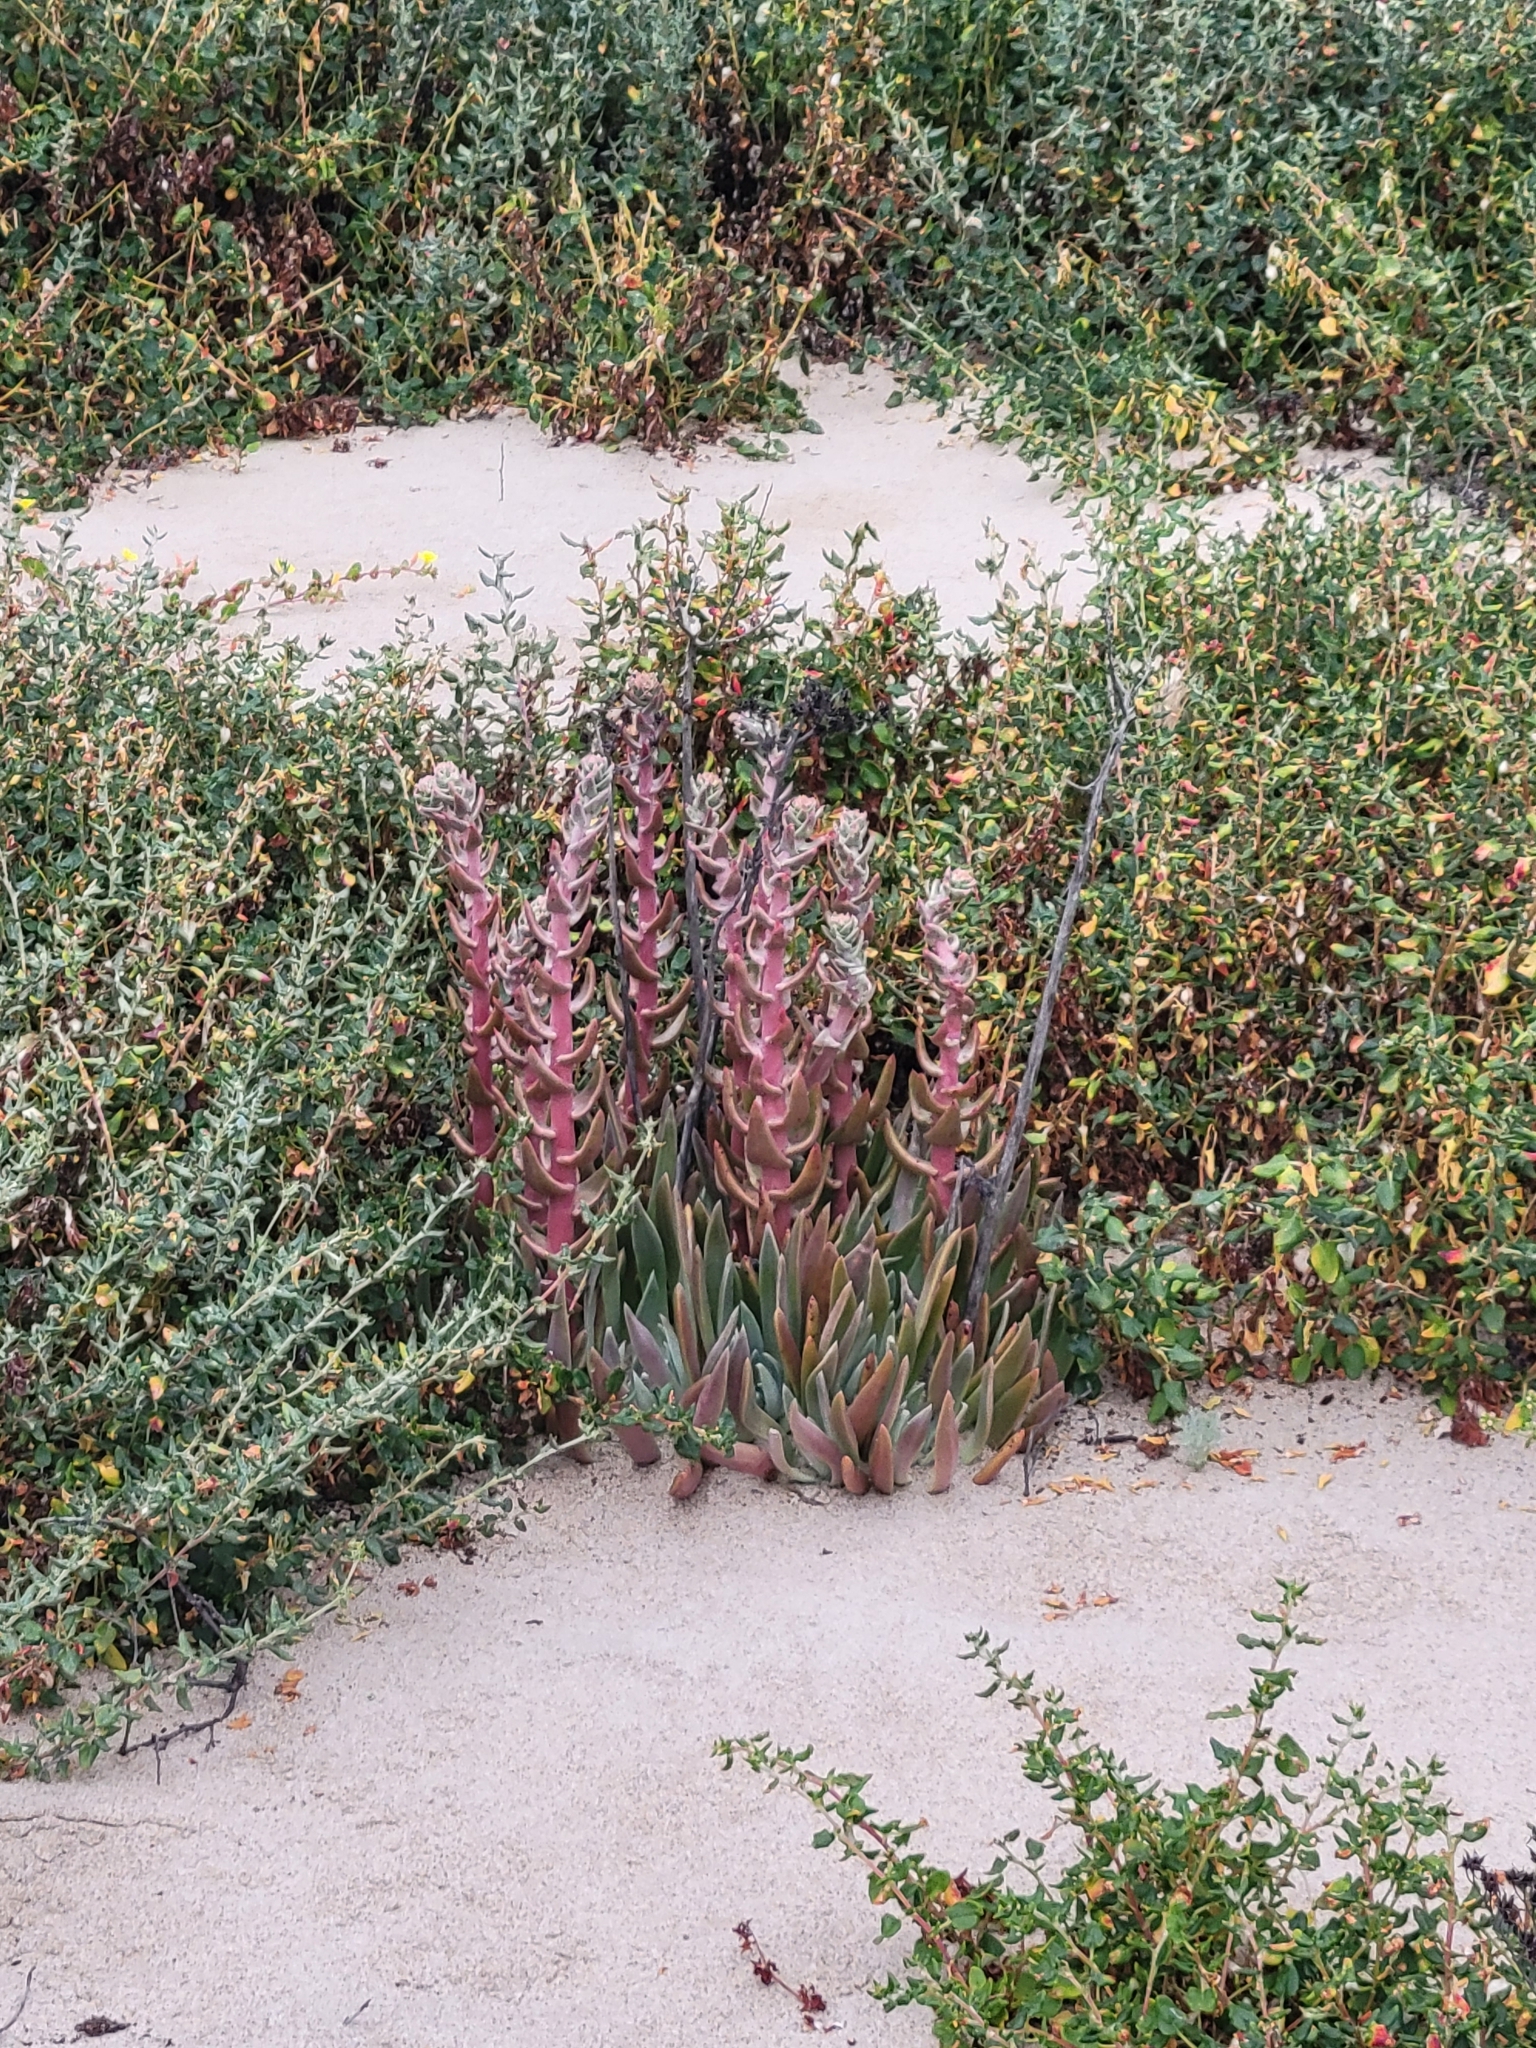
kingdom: Plantae
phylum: Tracheophyta
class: Magnoliopsida
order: Saxifragales
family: Crassulaceae
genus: Dudleya
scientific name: Dudleya caespitosa
